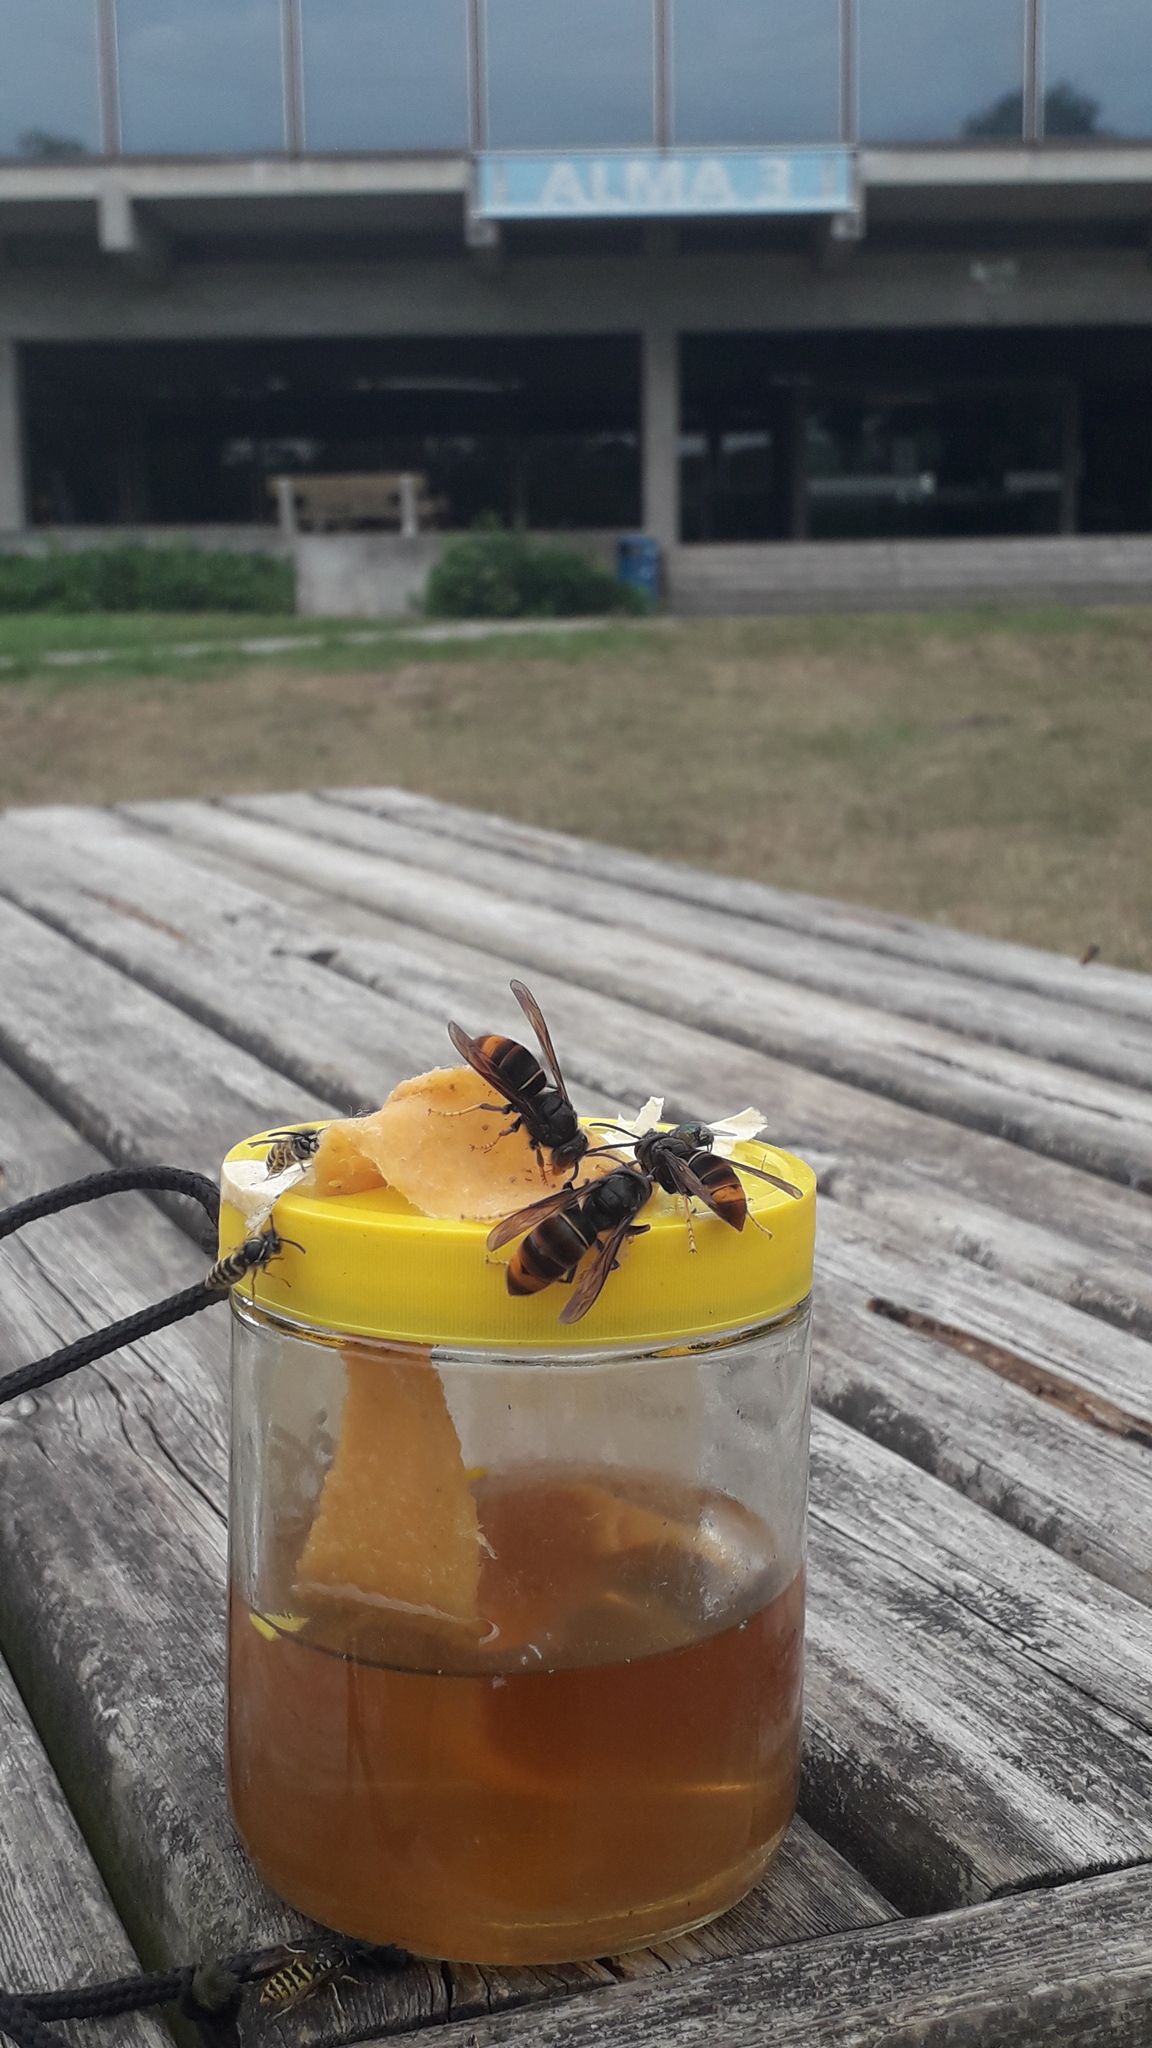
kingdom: Animalia
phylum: Arthropoda
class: Insecta
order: Hymenoptera
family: Vespidae
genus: Vespa
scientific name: Vespa velutina
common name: Asian hornet
